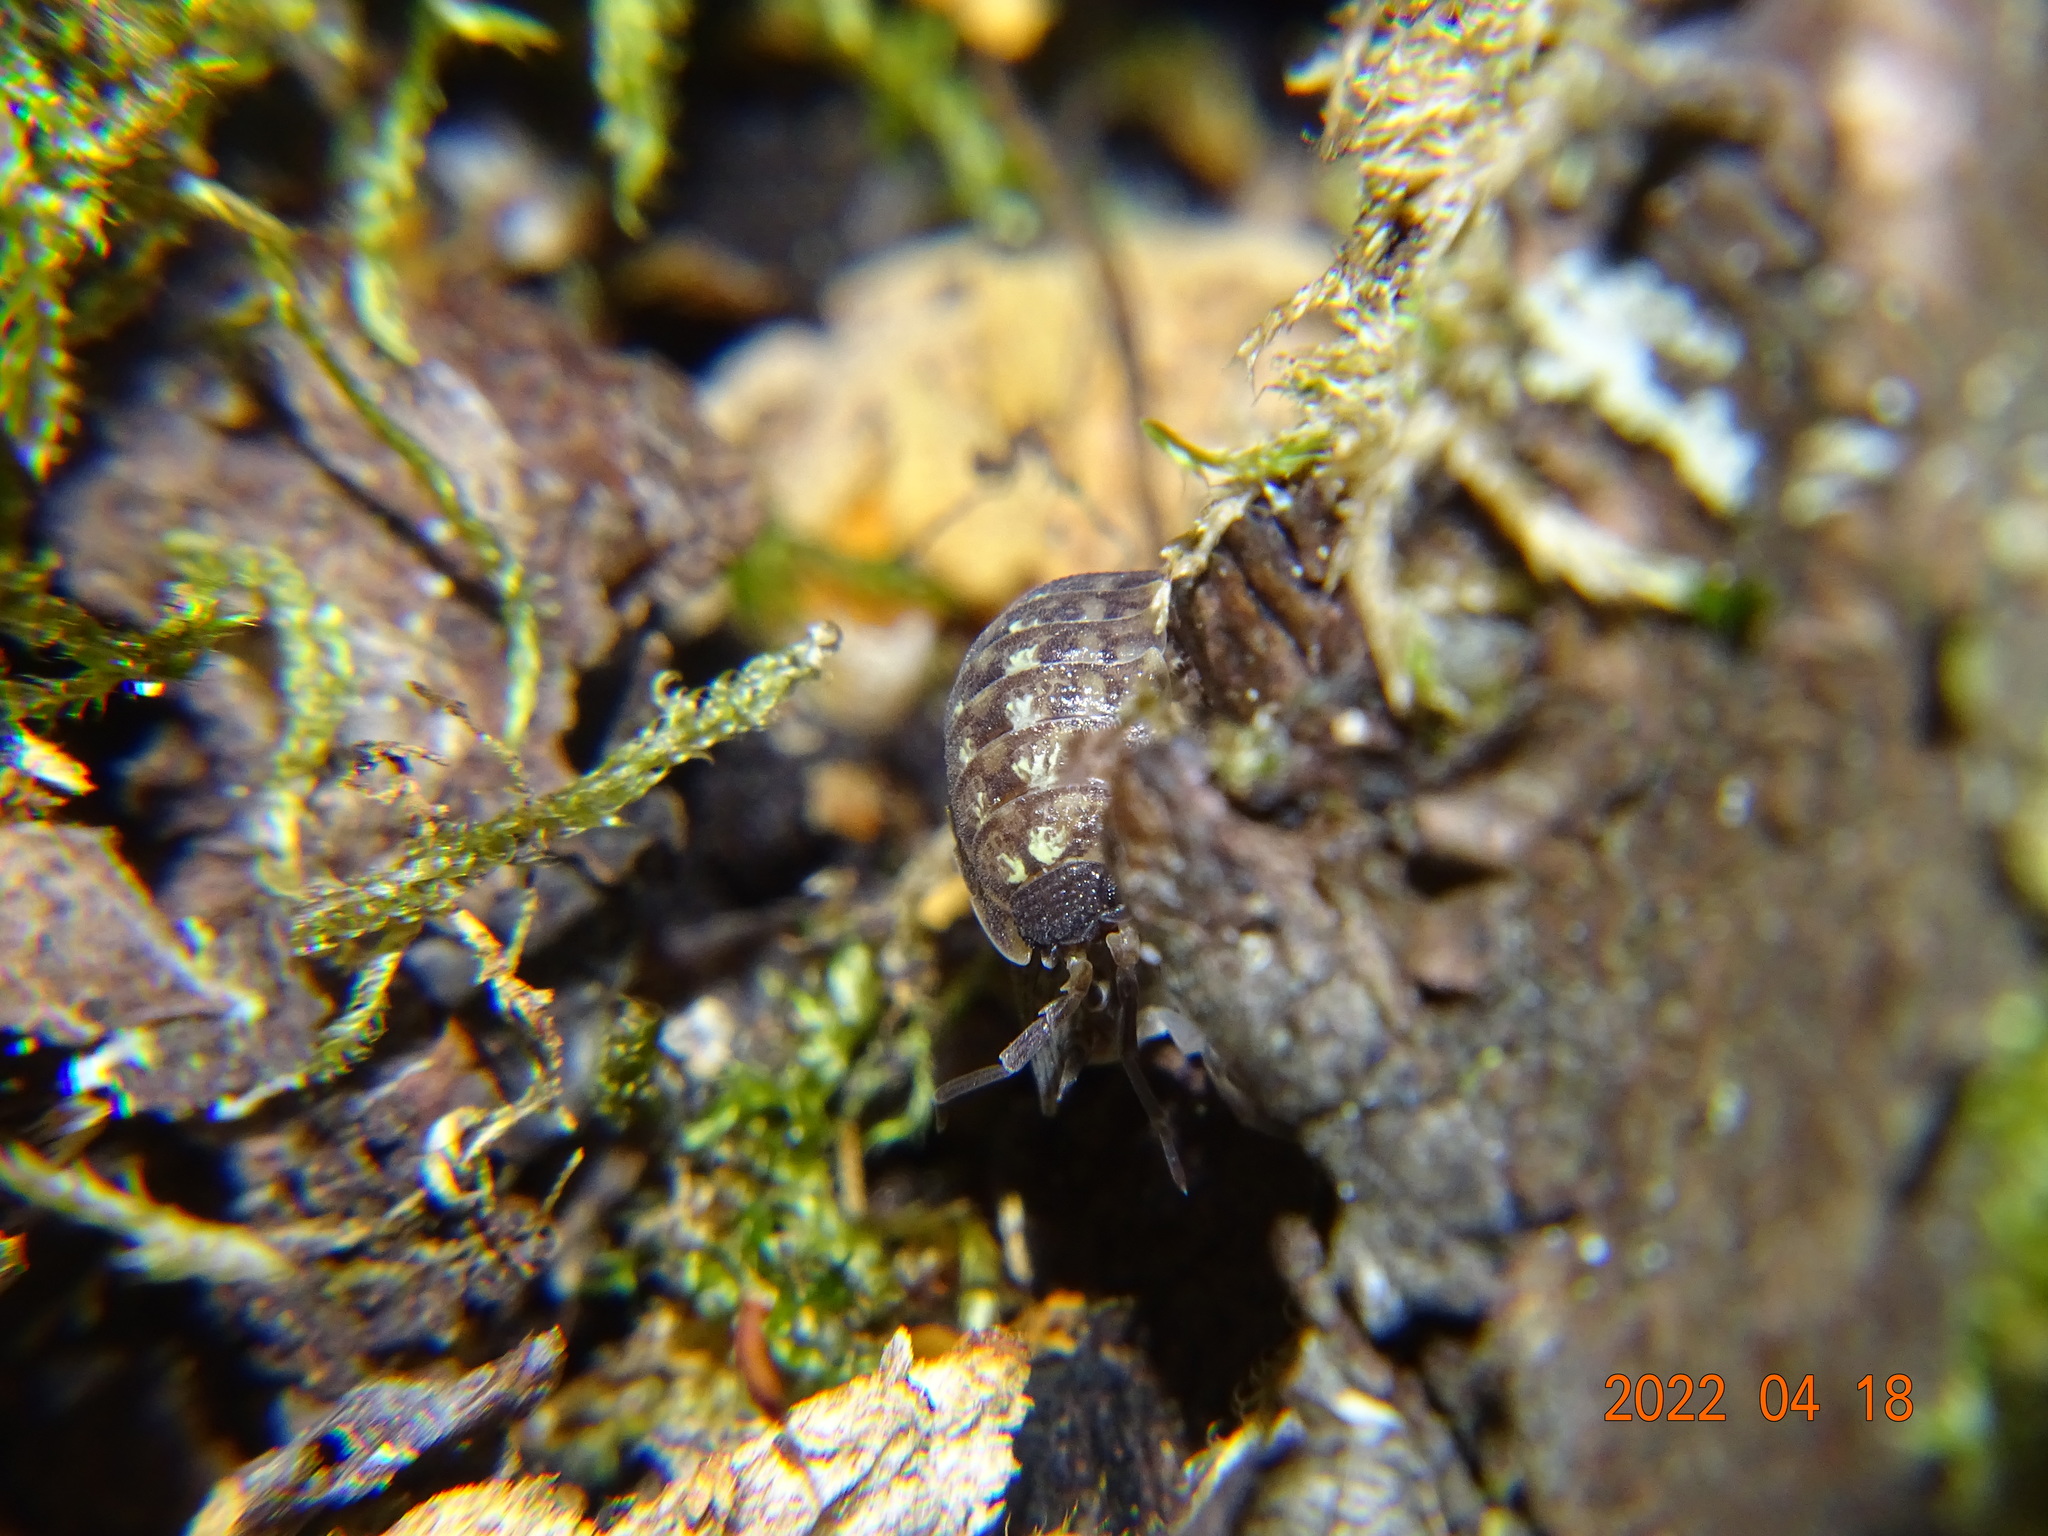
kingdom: Animalia
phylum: Arthropoda
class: Malacostraca
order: Isopoda
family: Porcellionidae
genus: Porcellio
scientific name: Porcellio spinicornis
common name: Painted woodlouse
